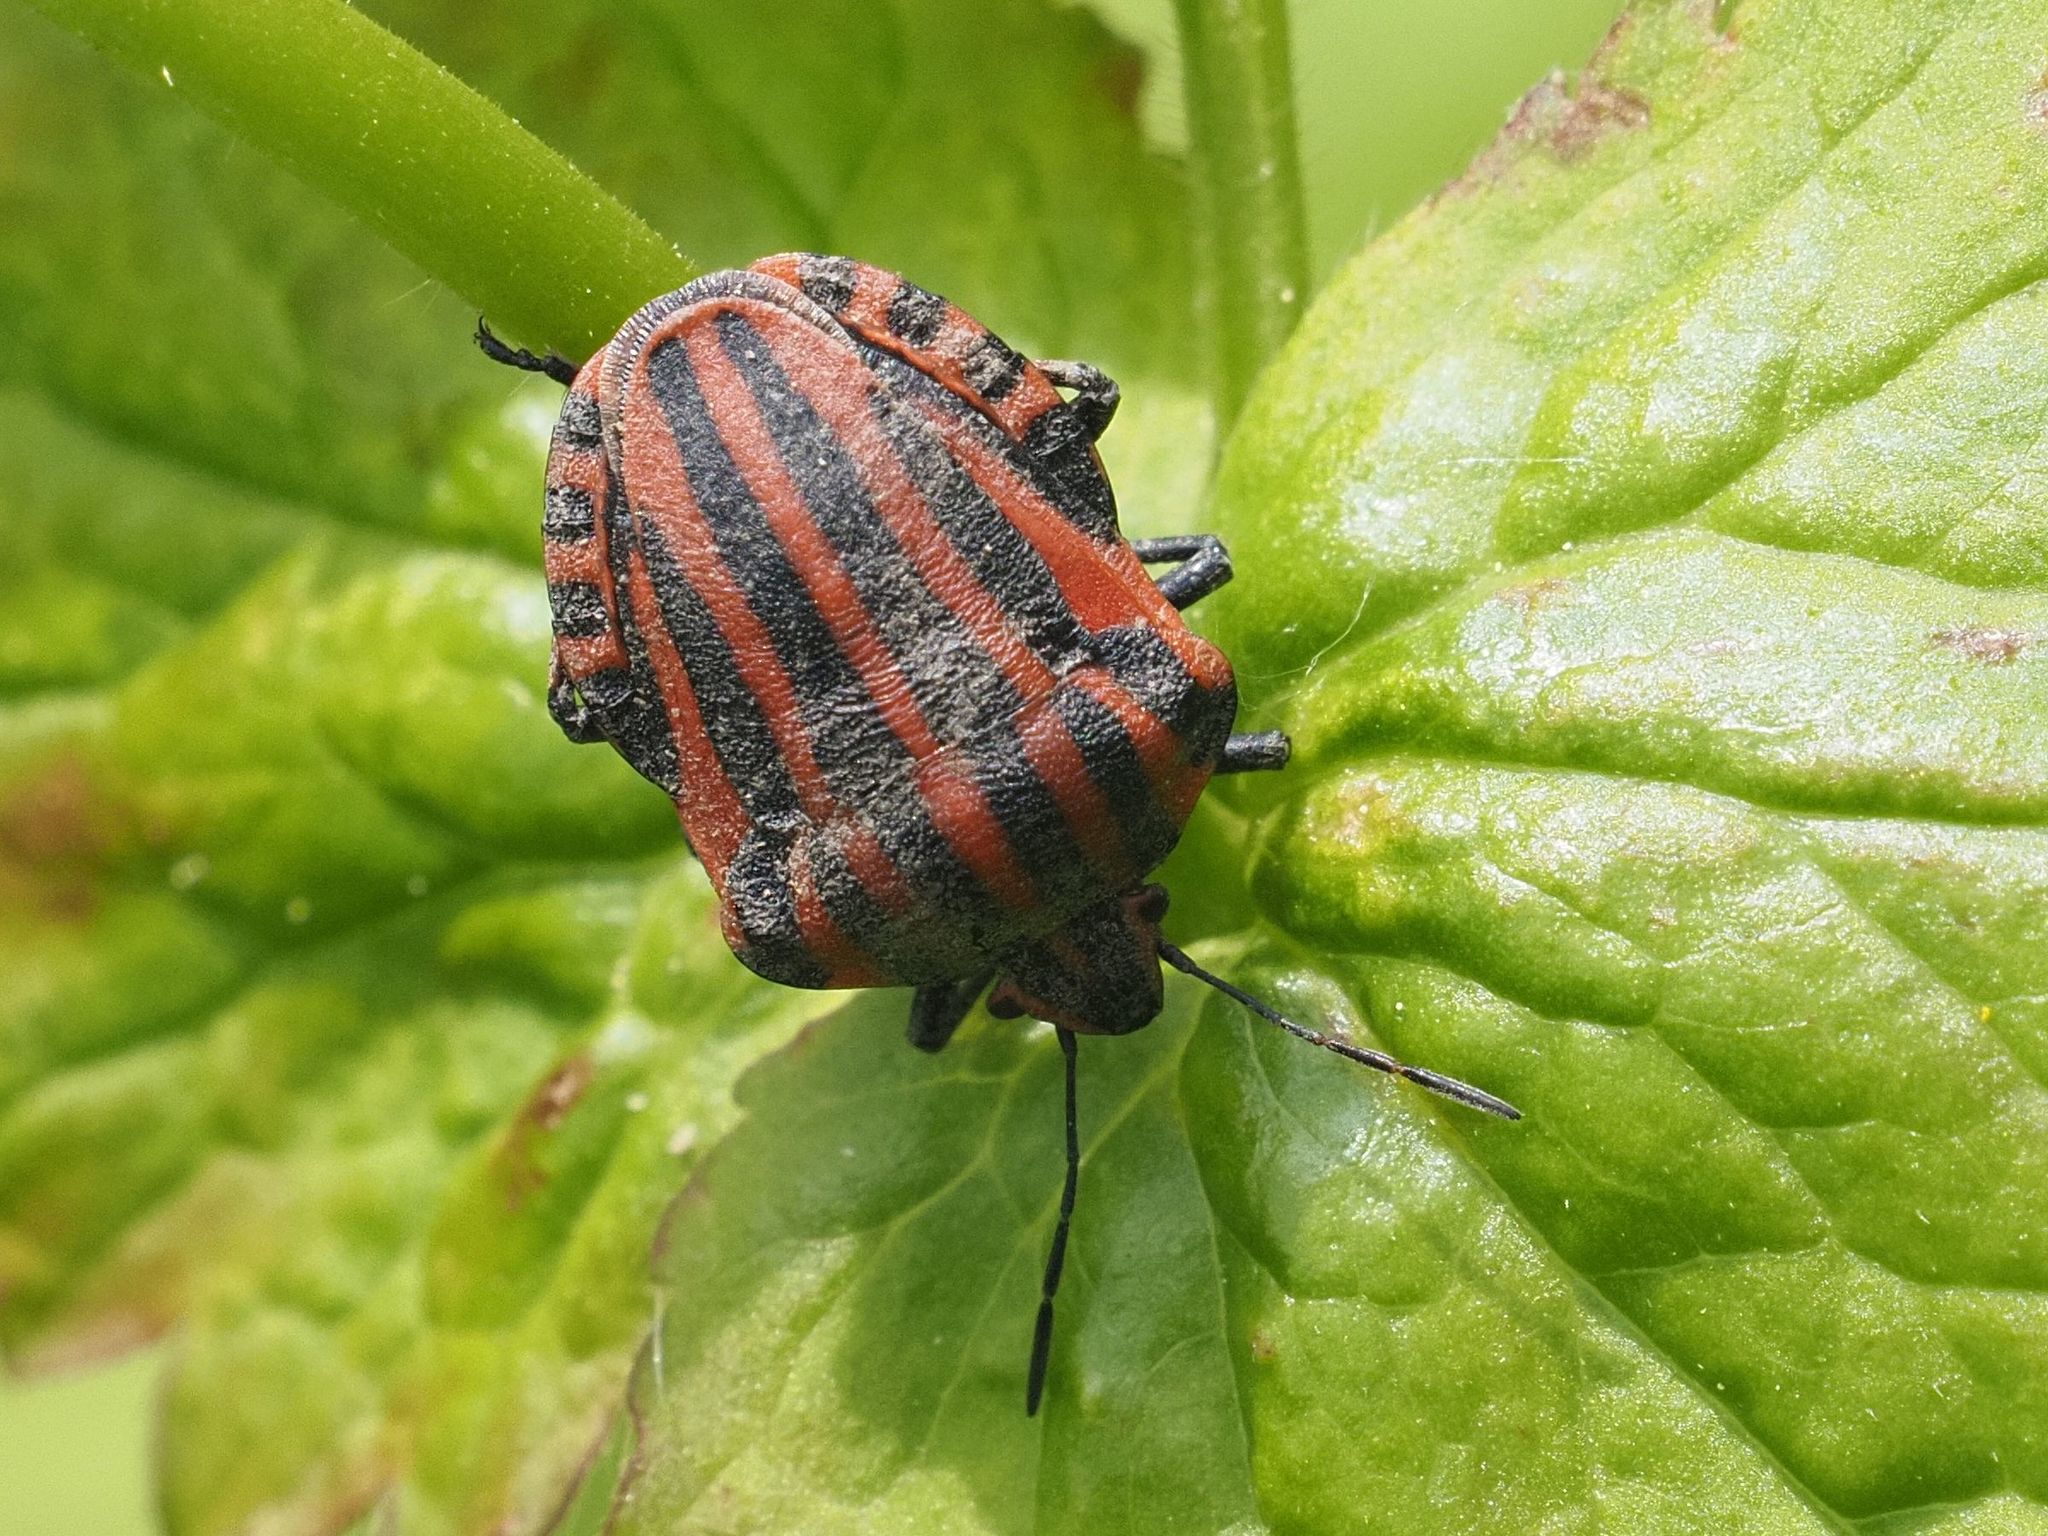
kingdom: Animalia
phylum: Arthropoda
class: Insecta
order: Hemiptera
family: Pentatomidae
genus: Graphosoma
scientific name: Graphosoma italicum
